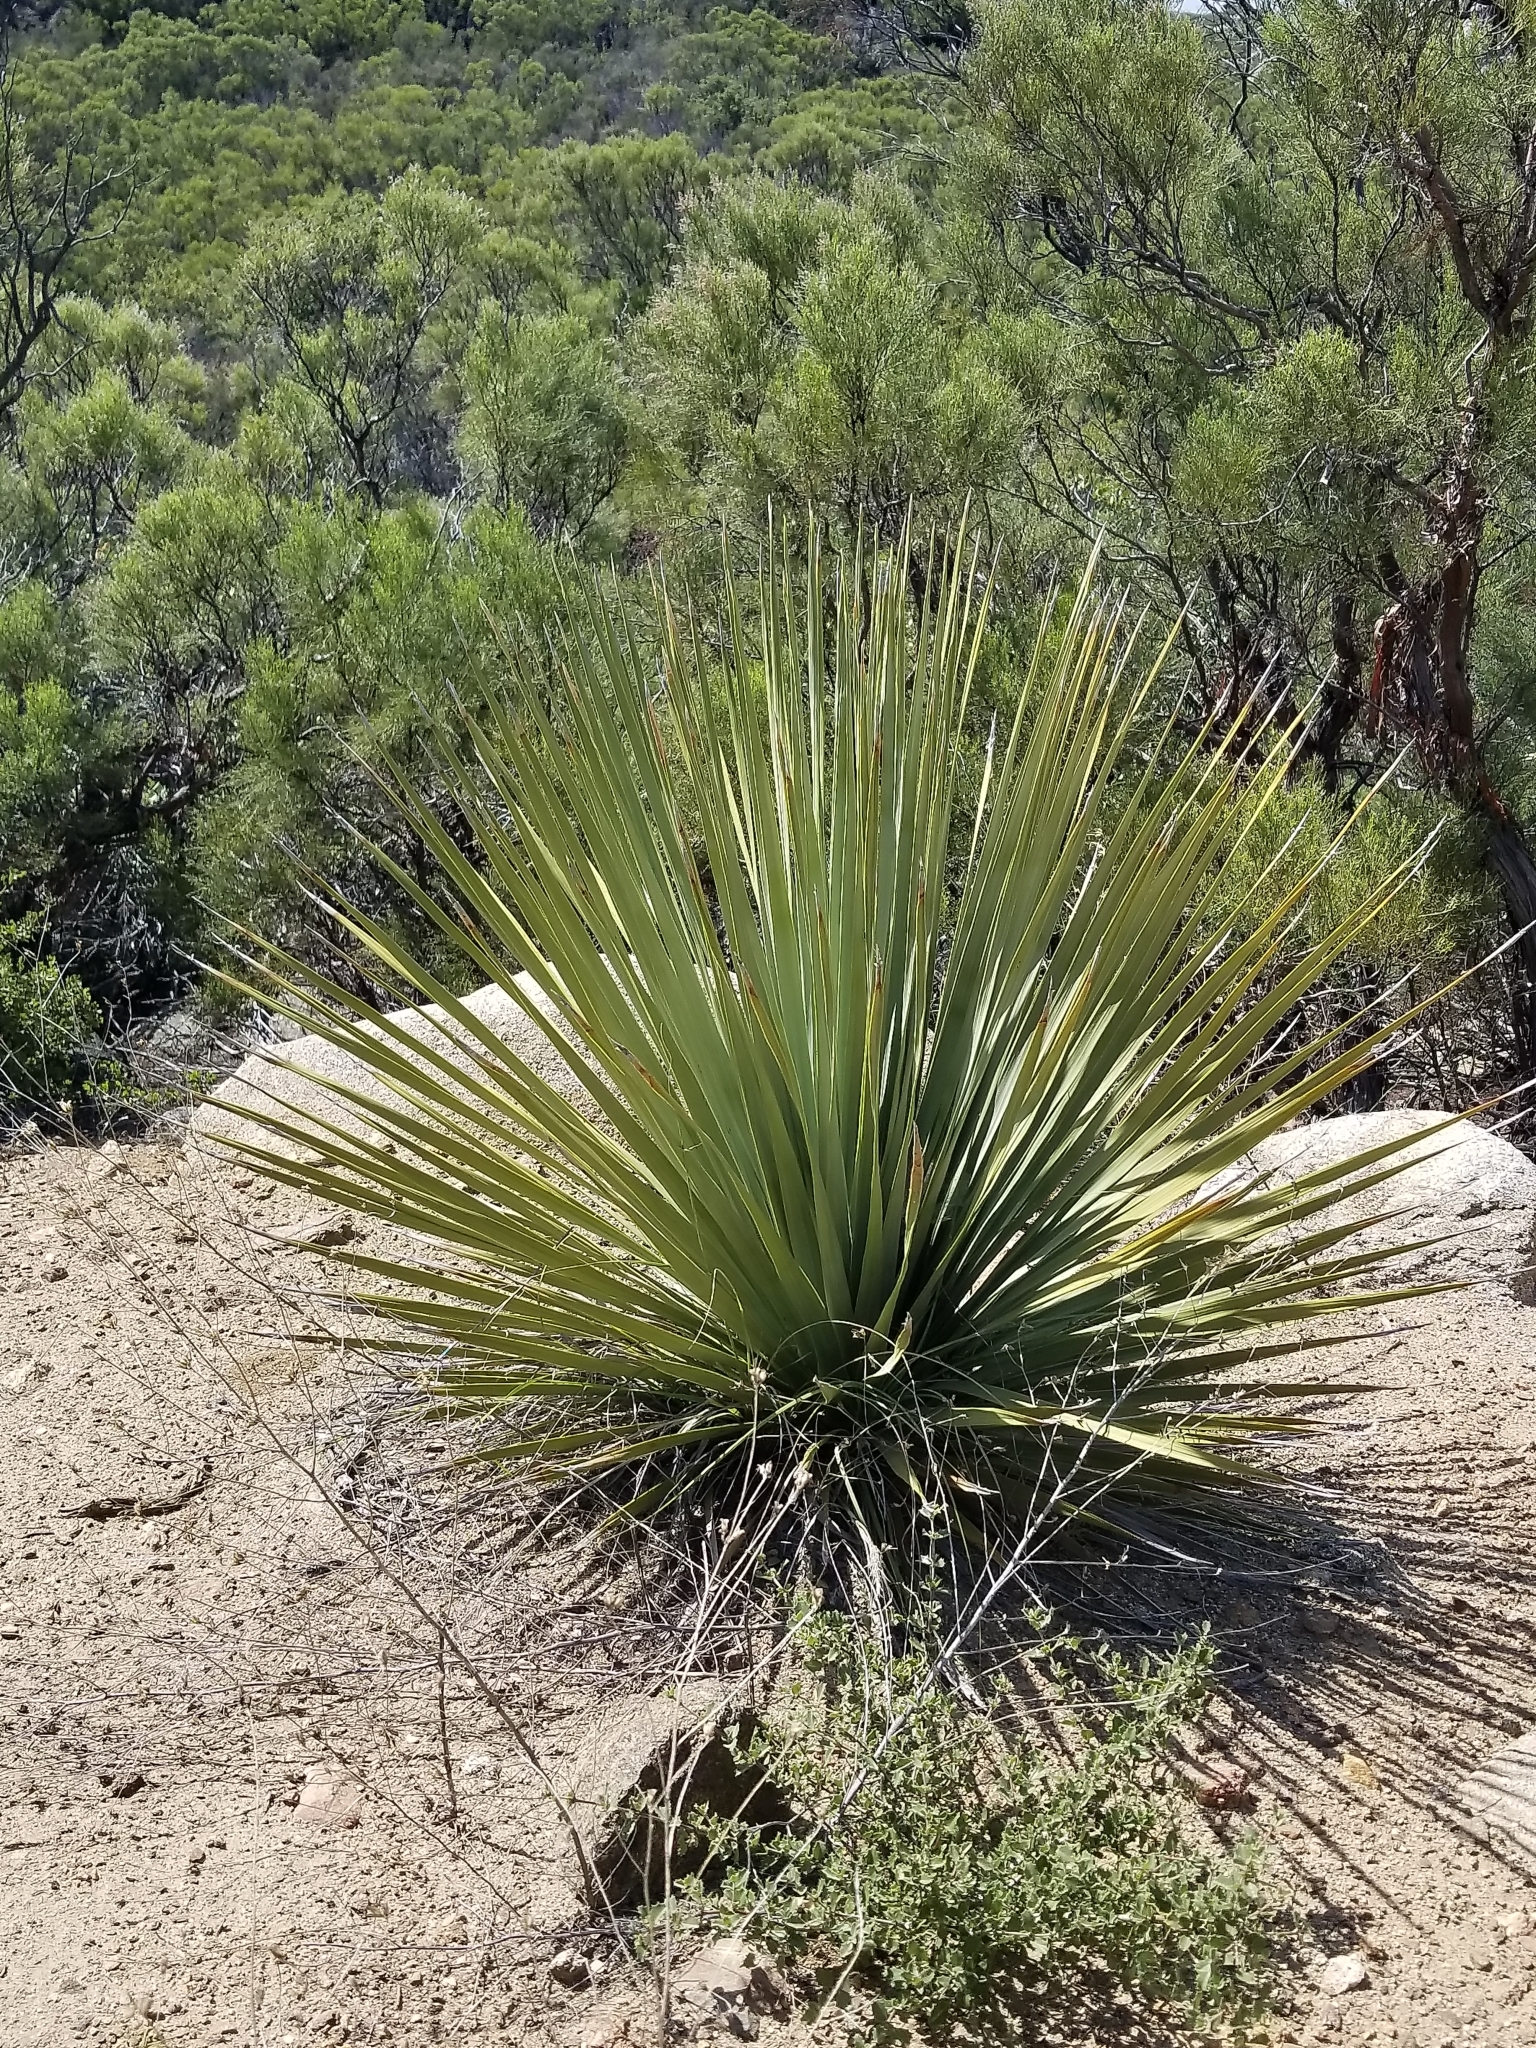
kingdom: Plantae
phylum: Tracheophyta
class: Liliopsida
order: Asparagales
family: Asparagaceae
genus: Nolina
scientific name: Nolina parryi
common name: Parry nolina
